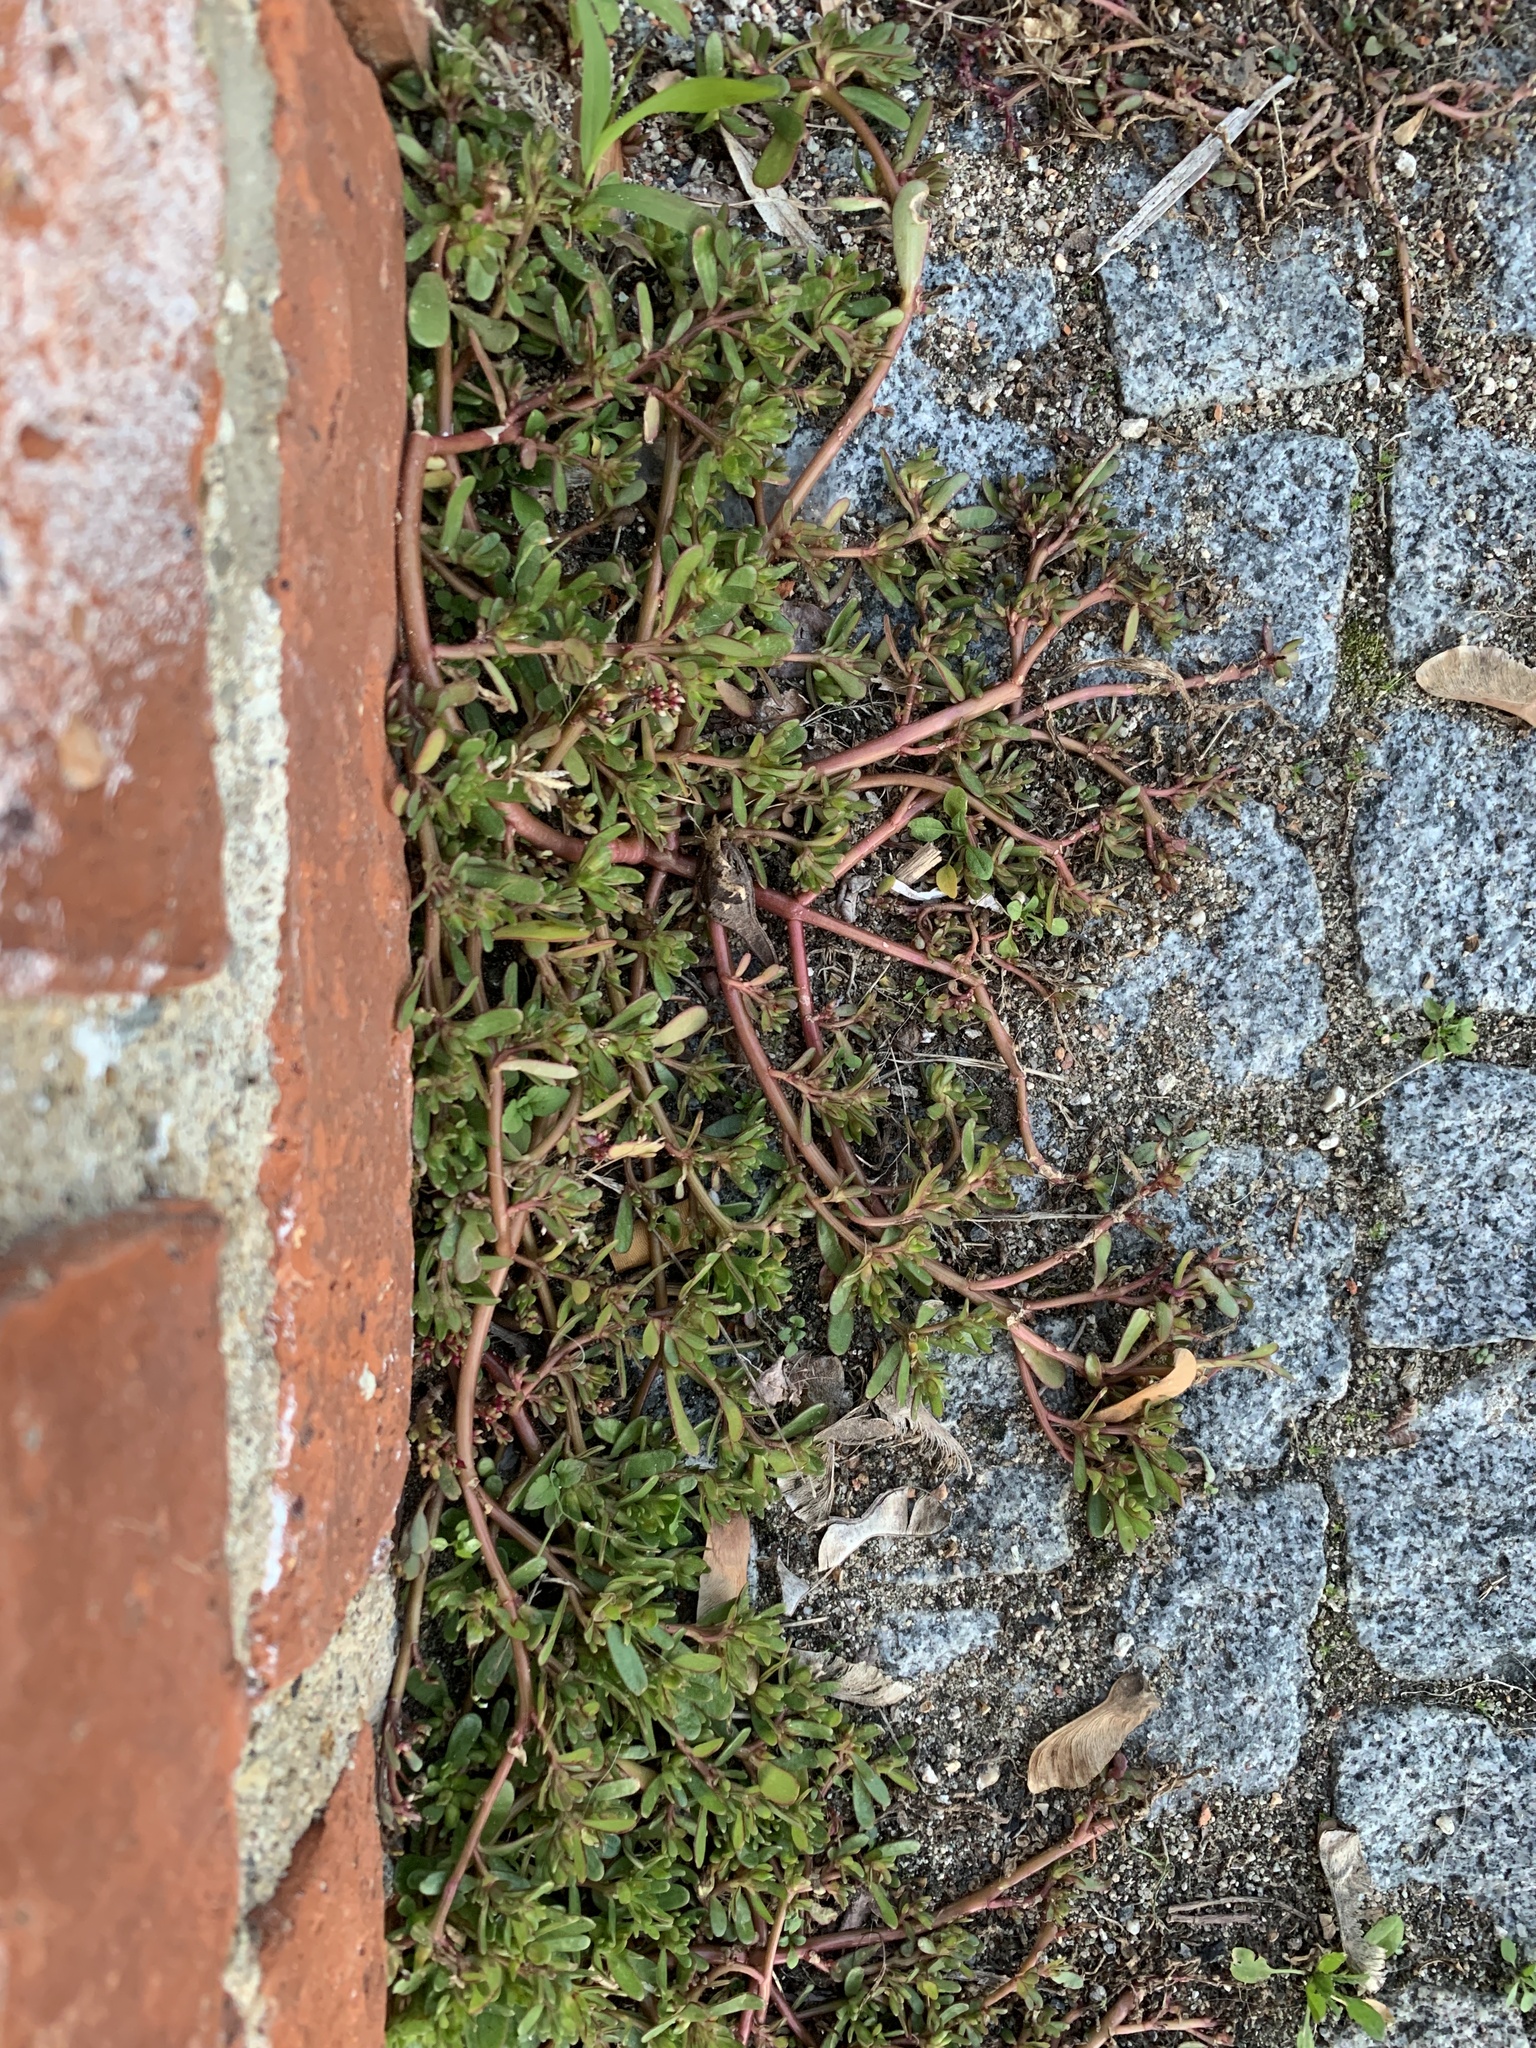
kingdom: Plantae
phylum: Tracheophyta
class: Magnoliopsida
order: Caryophyllales
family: Portulacaceae
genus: Portulaca
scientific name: Portulaca oleracea
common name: Common purslane
